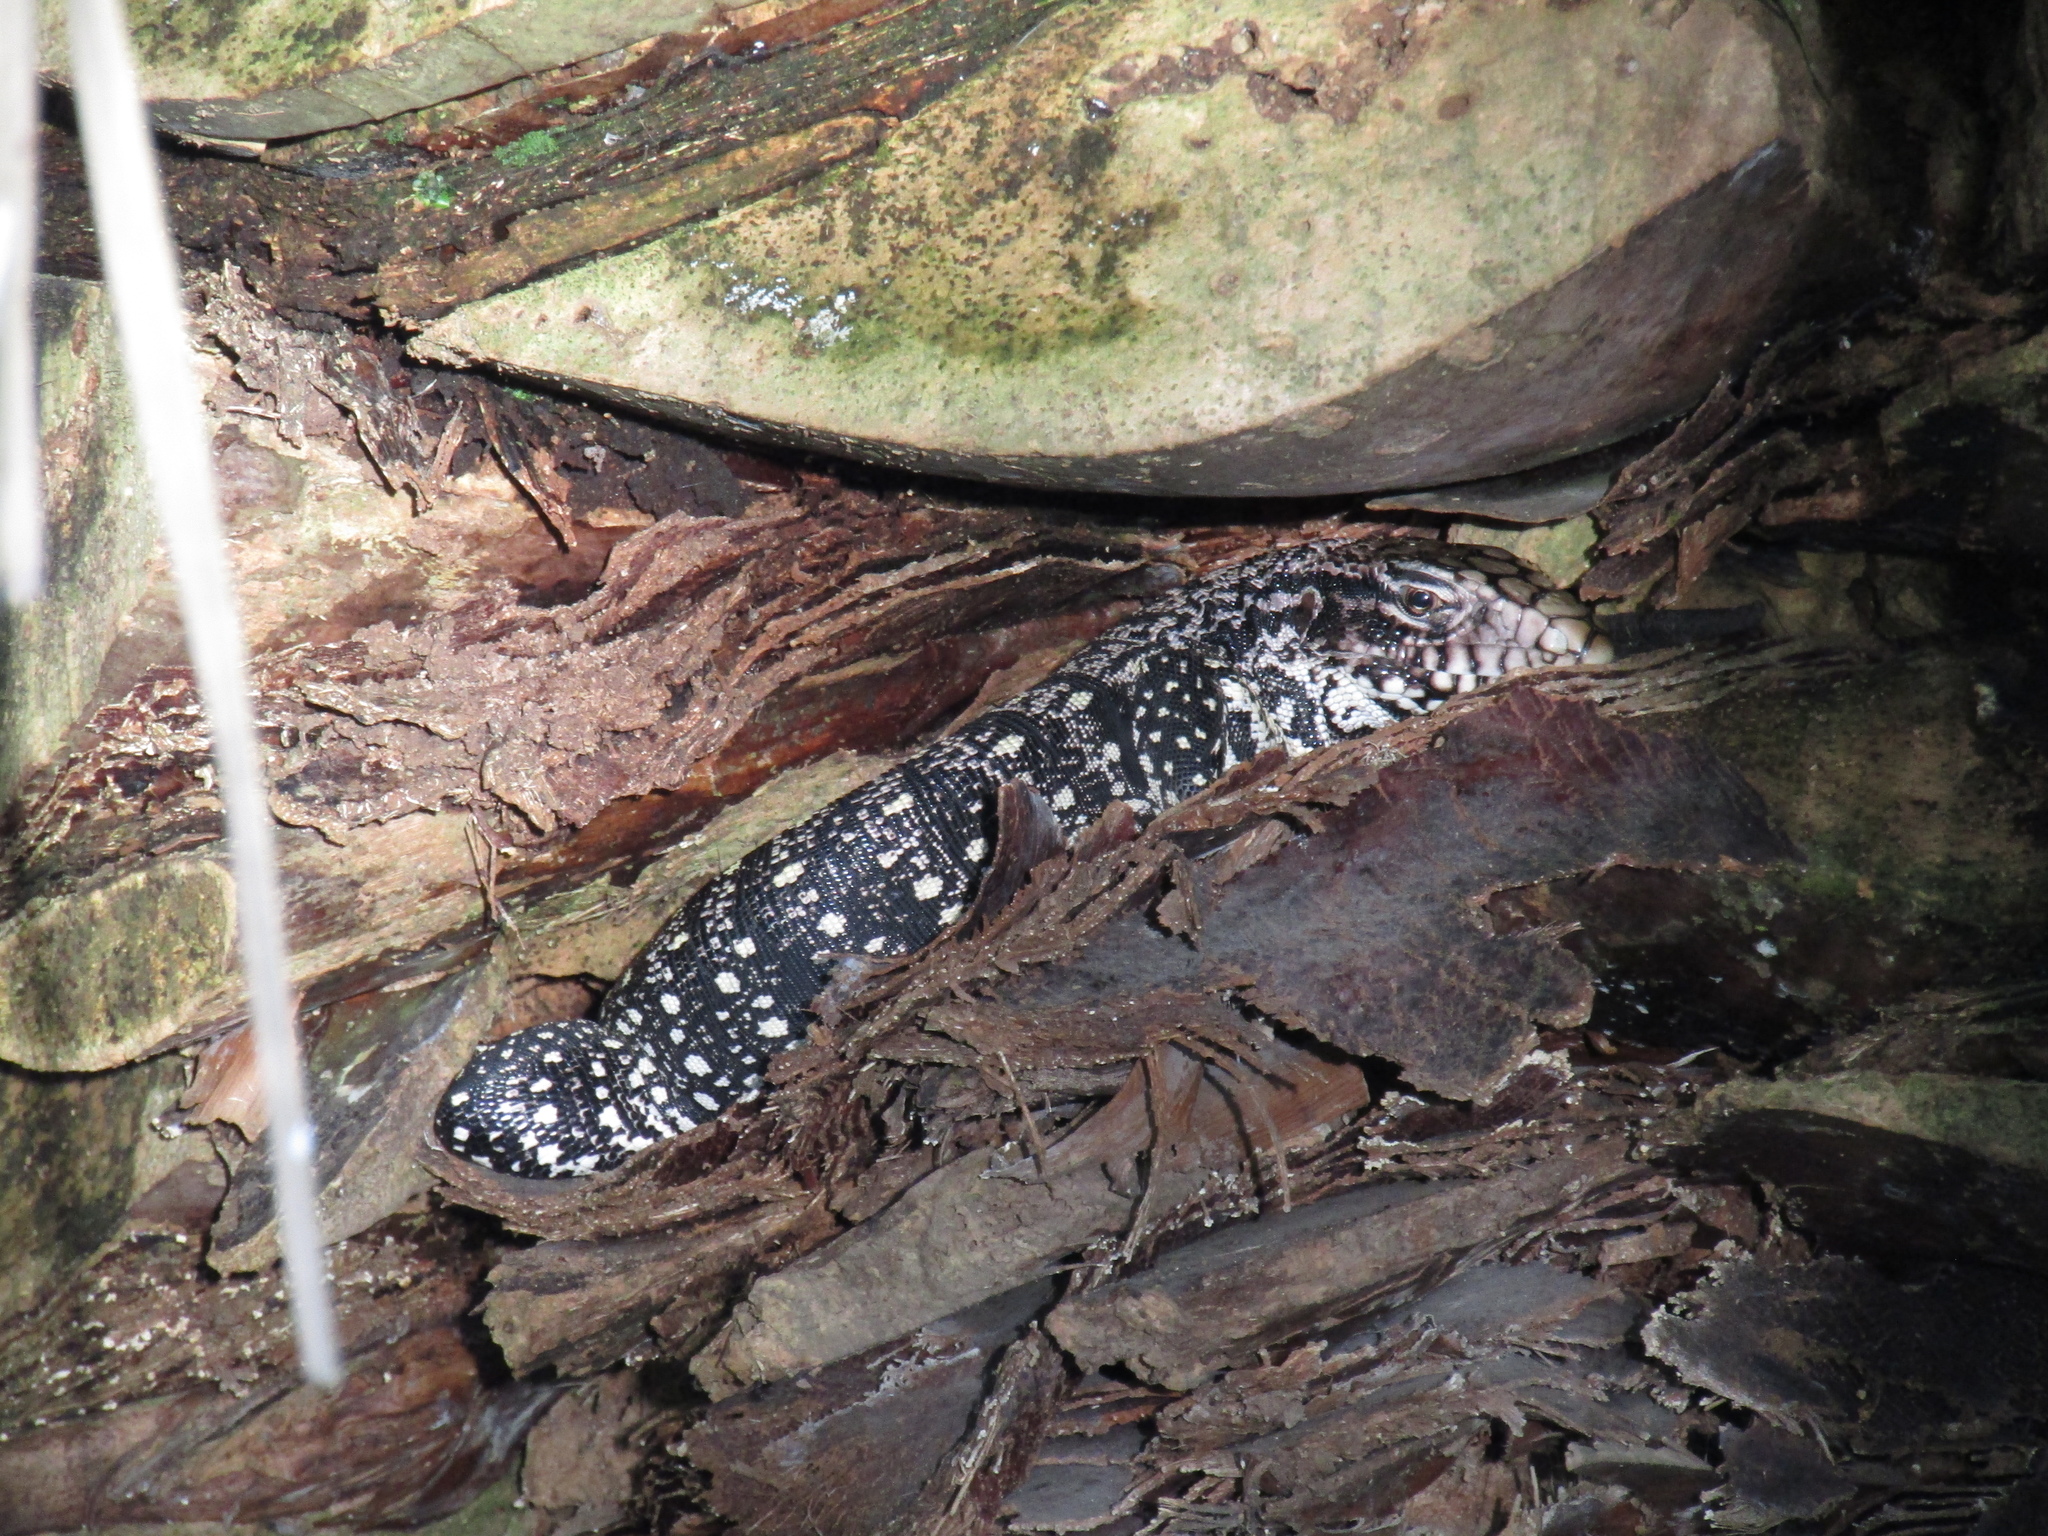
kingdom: Animalia
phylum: Chordata
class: Squamata
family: Teiidae
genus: Salvator
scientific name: Salvator merianae
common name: Argentine black and white tegu
